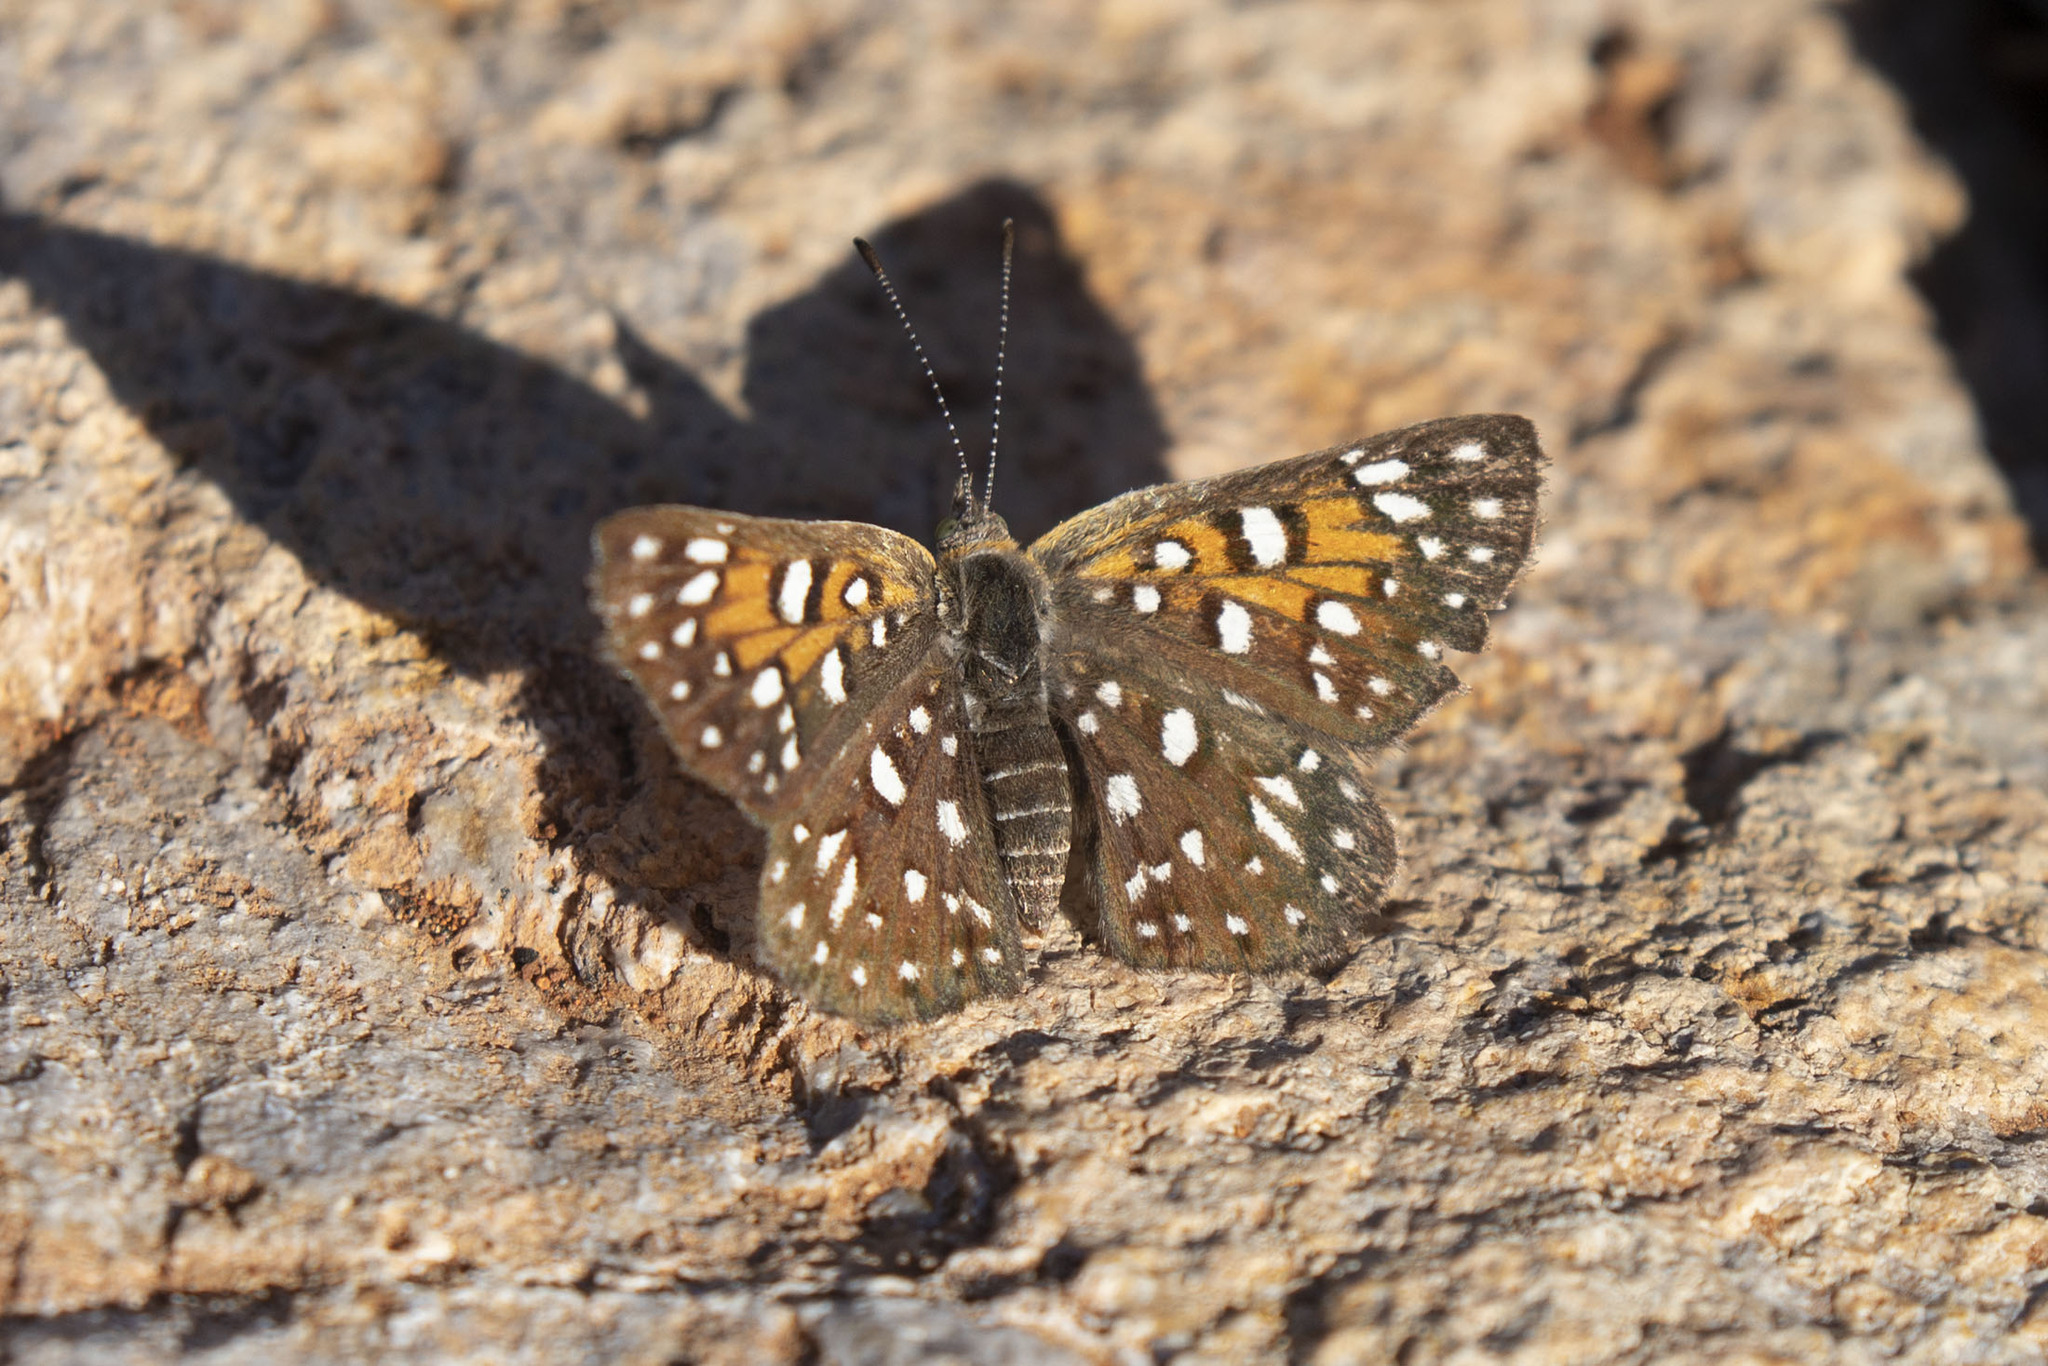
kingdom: Animalia
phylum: Arthropoda
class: Insecta
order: Lepidoptera
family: Riodinidae
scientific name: Riodinidae
